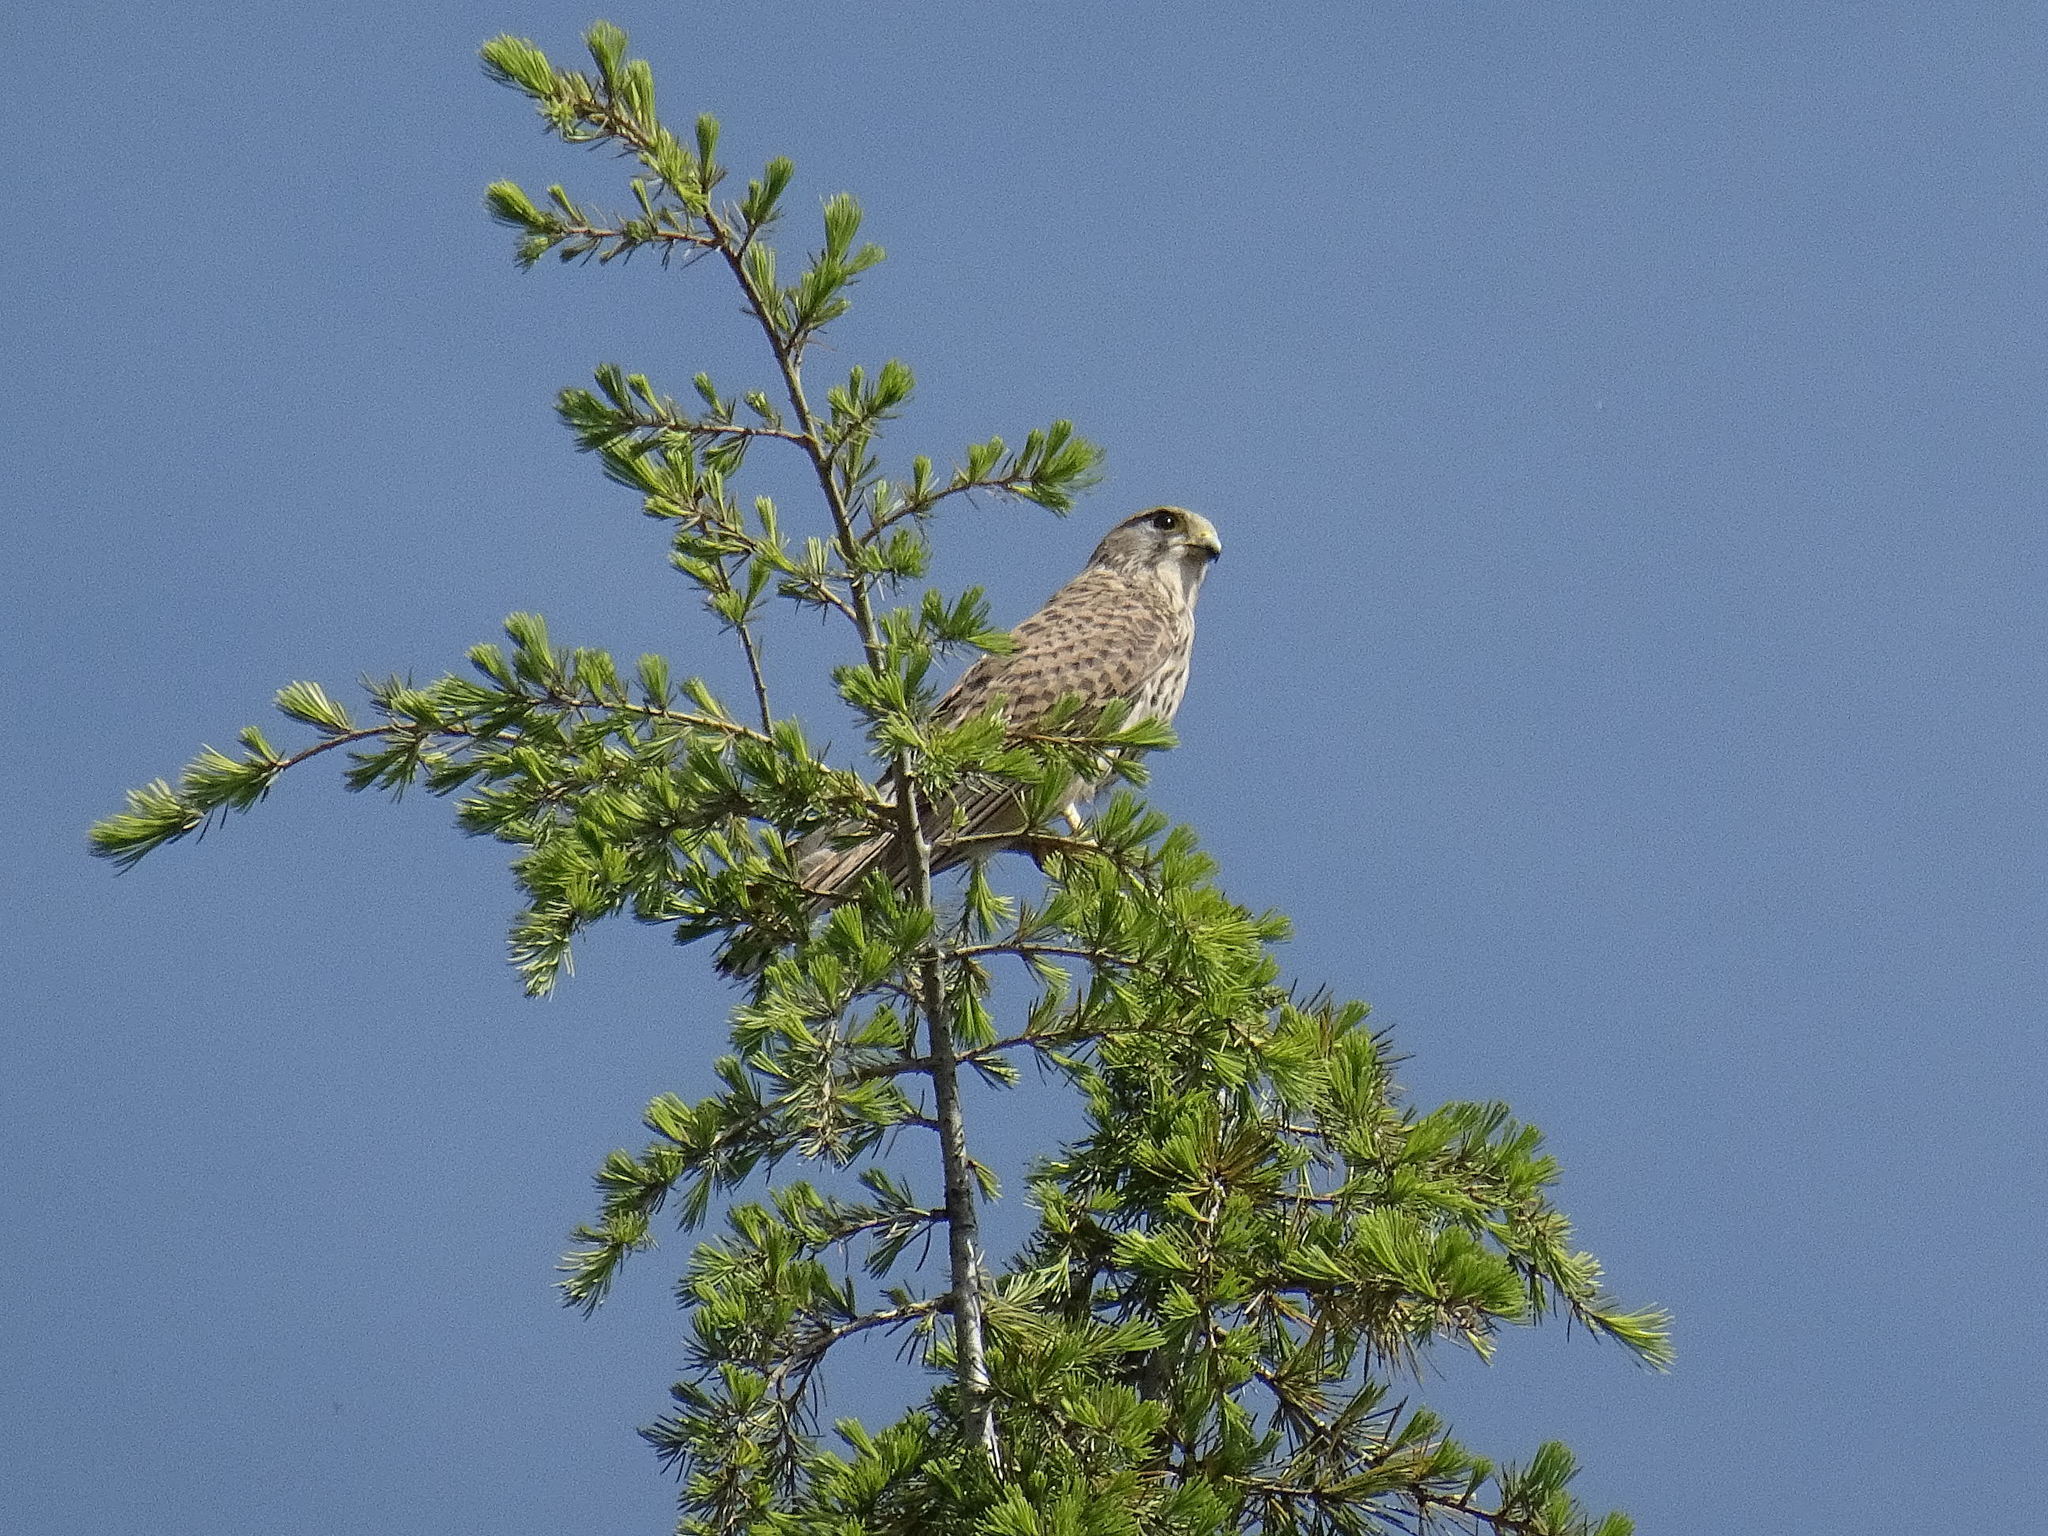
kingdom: Animalia
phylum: Chordata
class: Aves
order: Falconiformes
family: Falconidae
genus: Falco
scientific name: Falco tinnunculus
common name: Common kestrel
